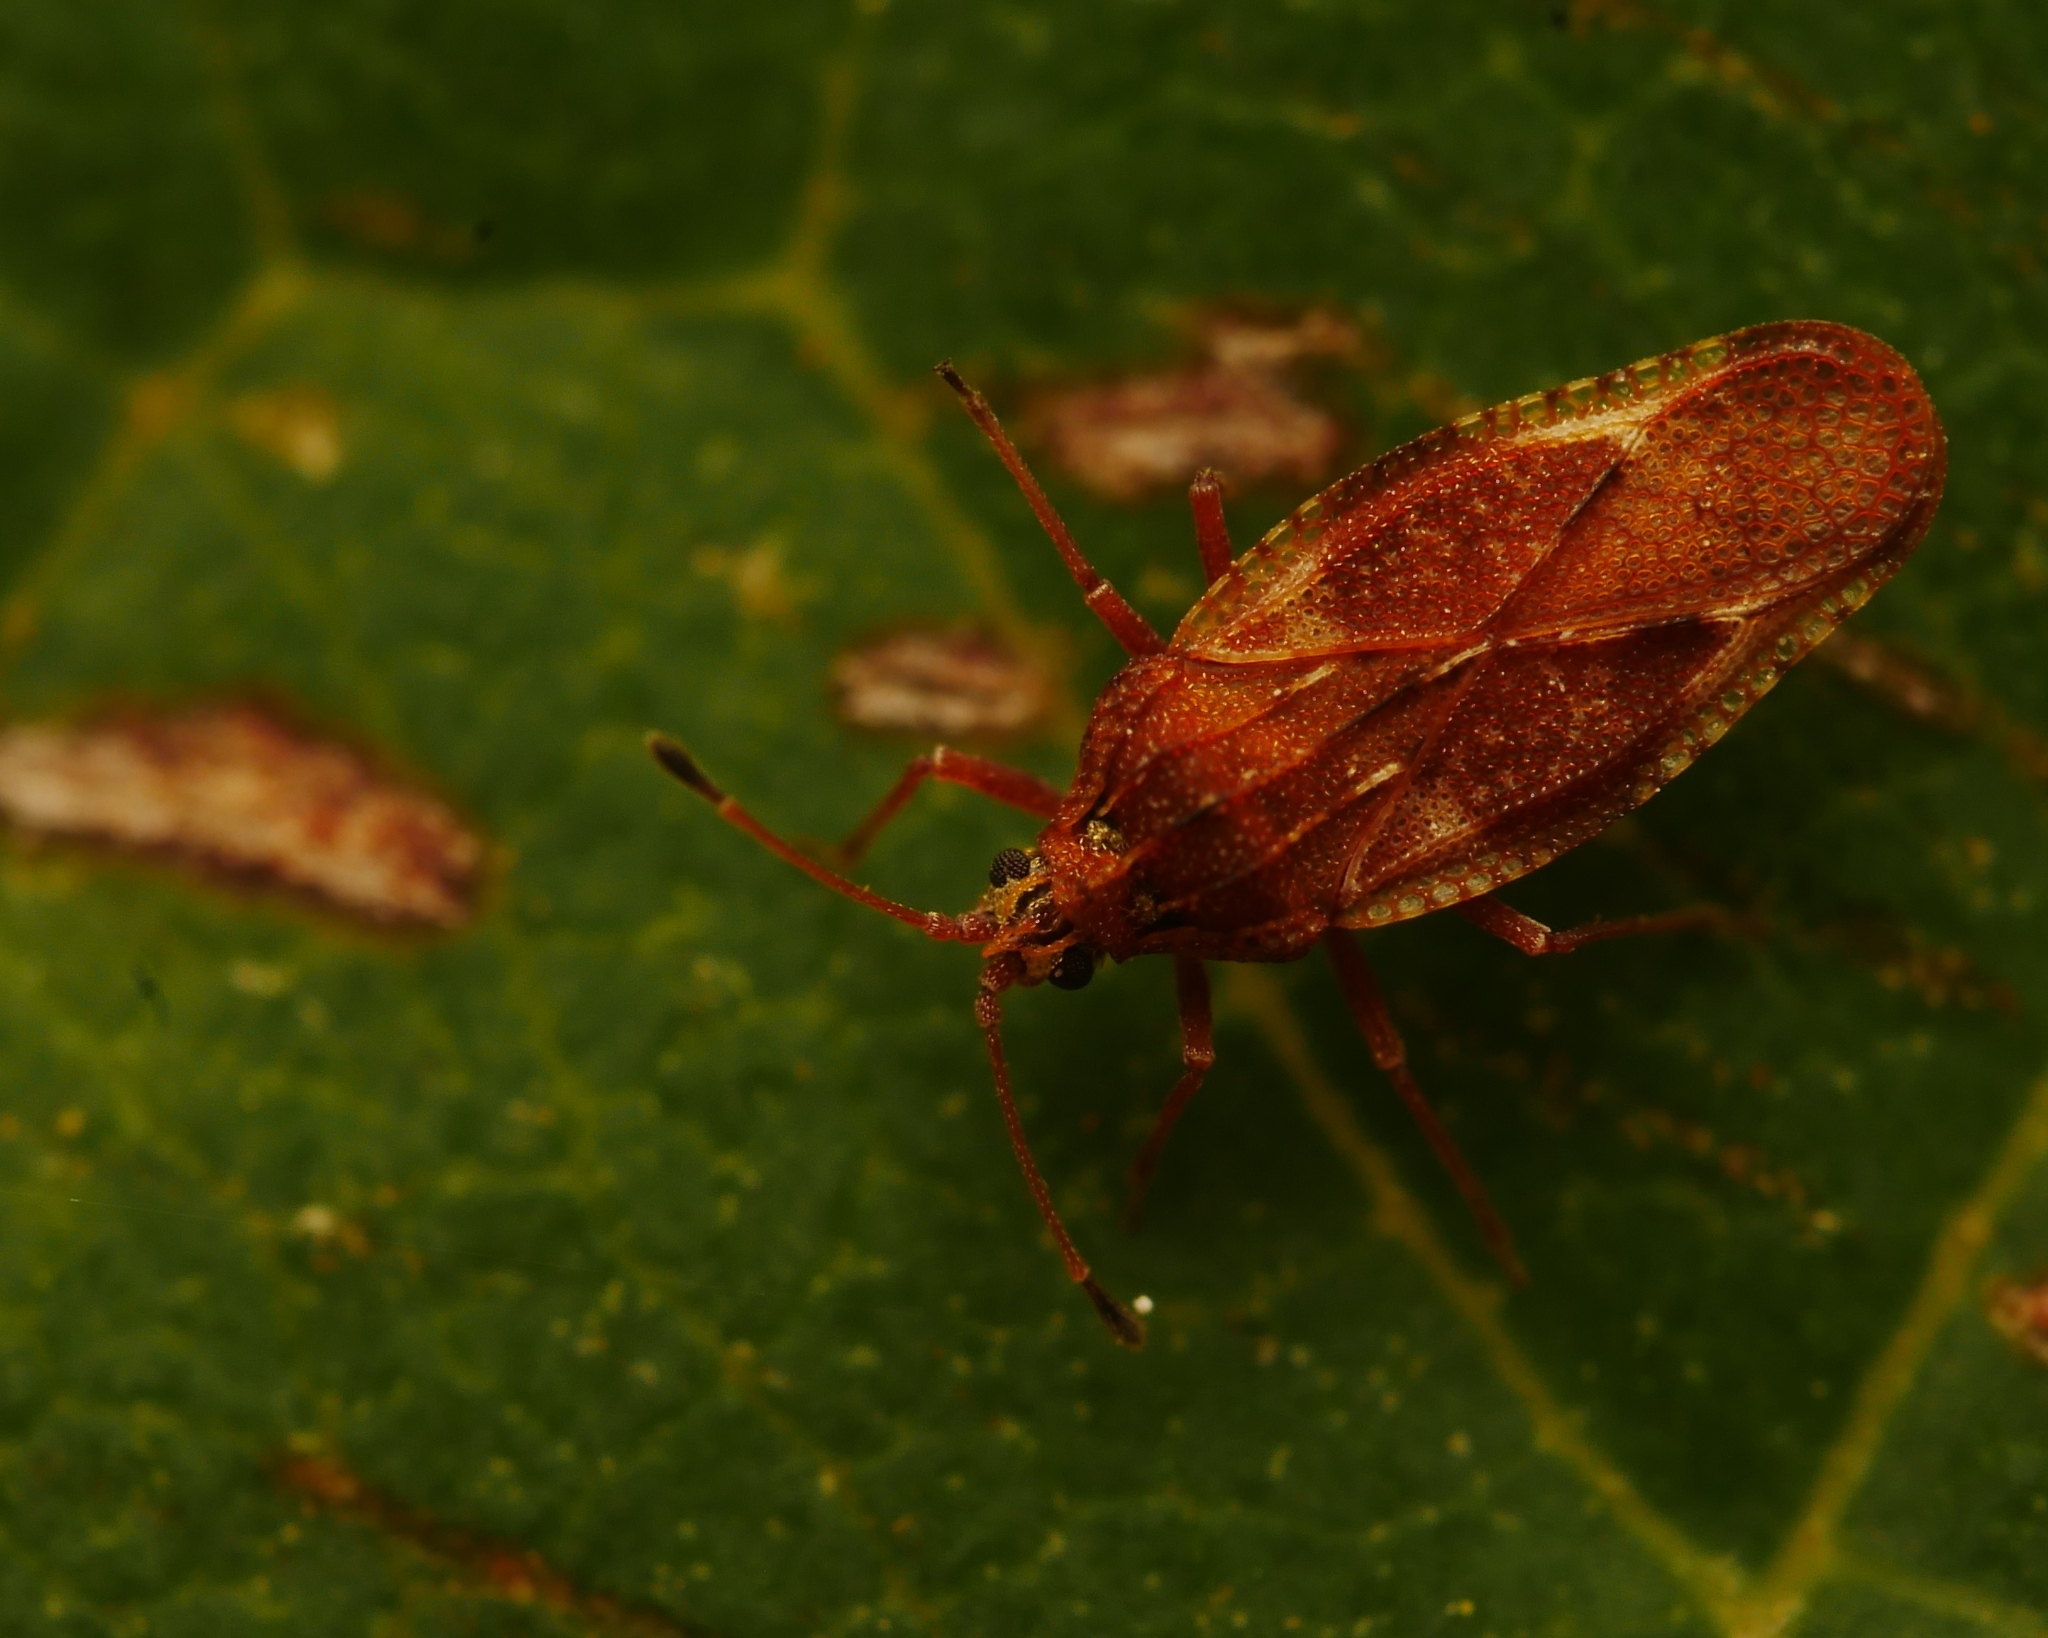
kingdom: Animalia
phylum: Arthropoda
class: Insecta
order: Hemiptera
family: Tingidae
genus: Physatocheila
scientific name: Physatocheila dumetorum
